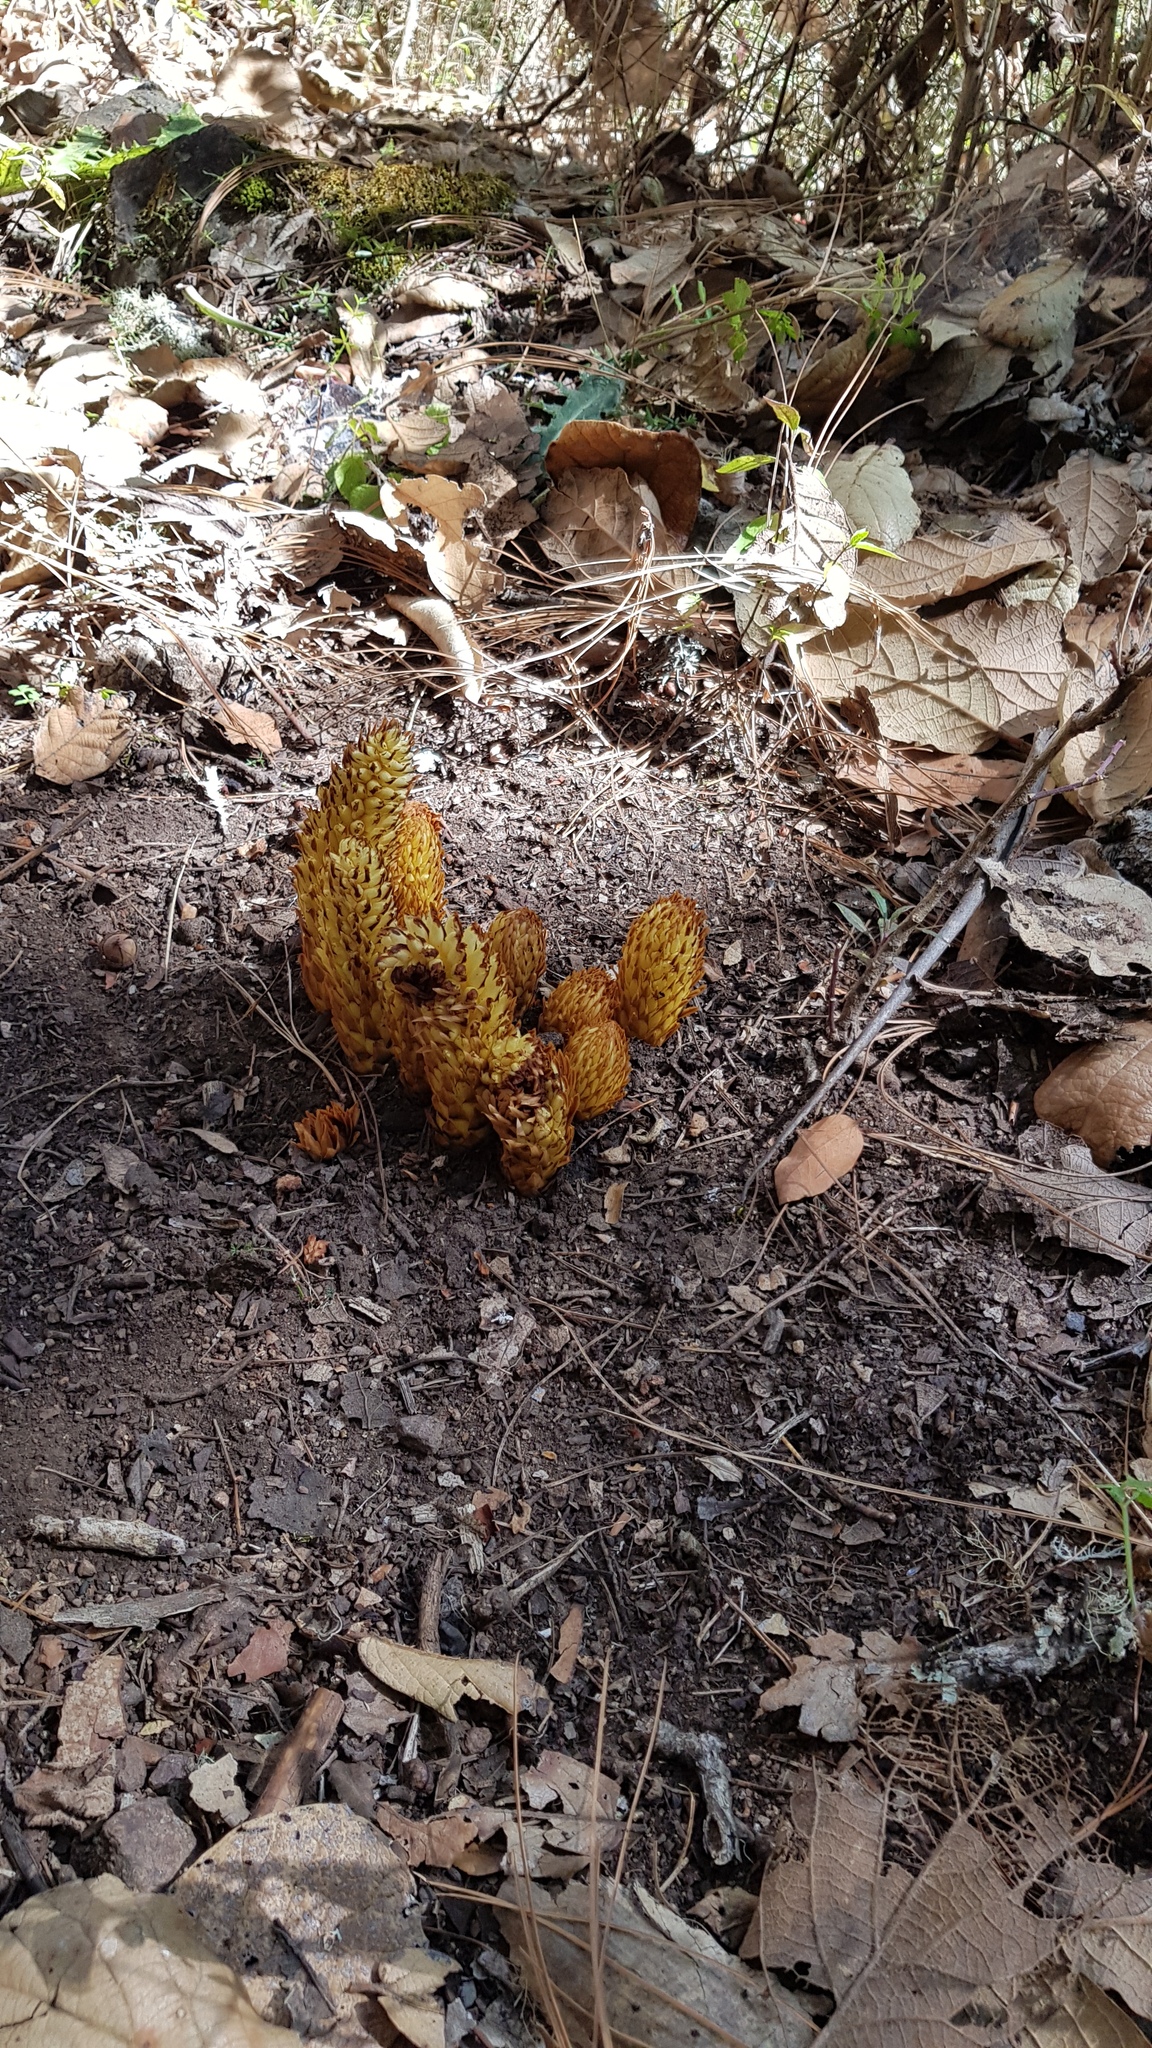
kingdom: Plantae
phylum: Tracheophyta
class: Magnoliopsida
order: Lamiales
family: Orobanchaceae
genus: Conopholis
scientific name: Conopholis alpina
